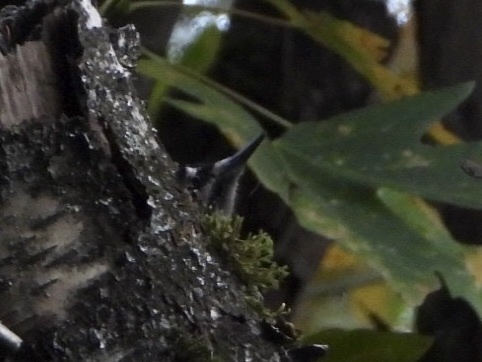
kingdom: Animalia
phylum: Chordata
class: Aves
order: Piciformes
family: Picidae
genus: Leuconotopicus
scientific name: Leuconotopicus villosus
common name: Hairy woodpecker
